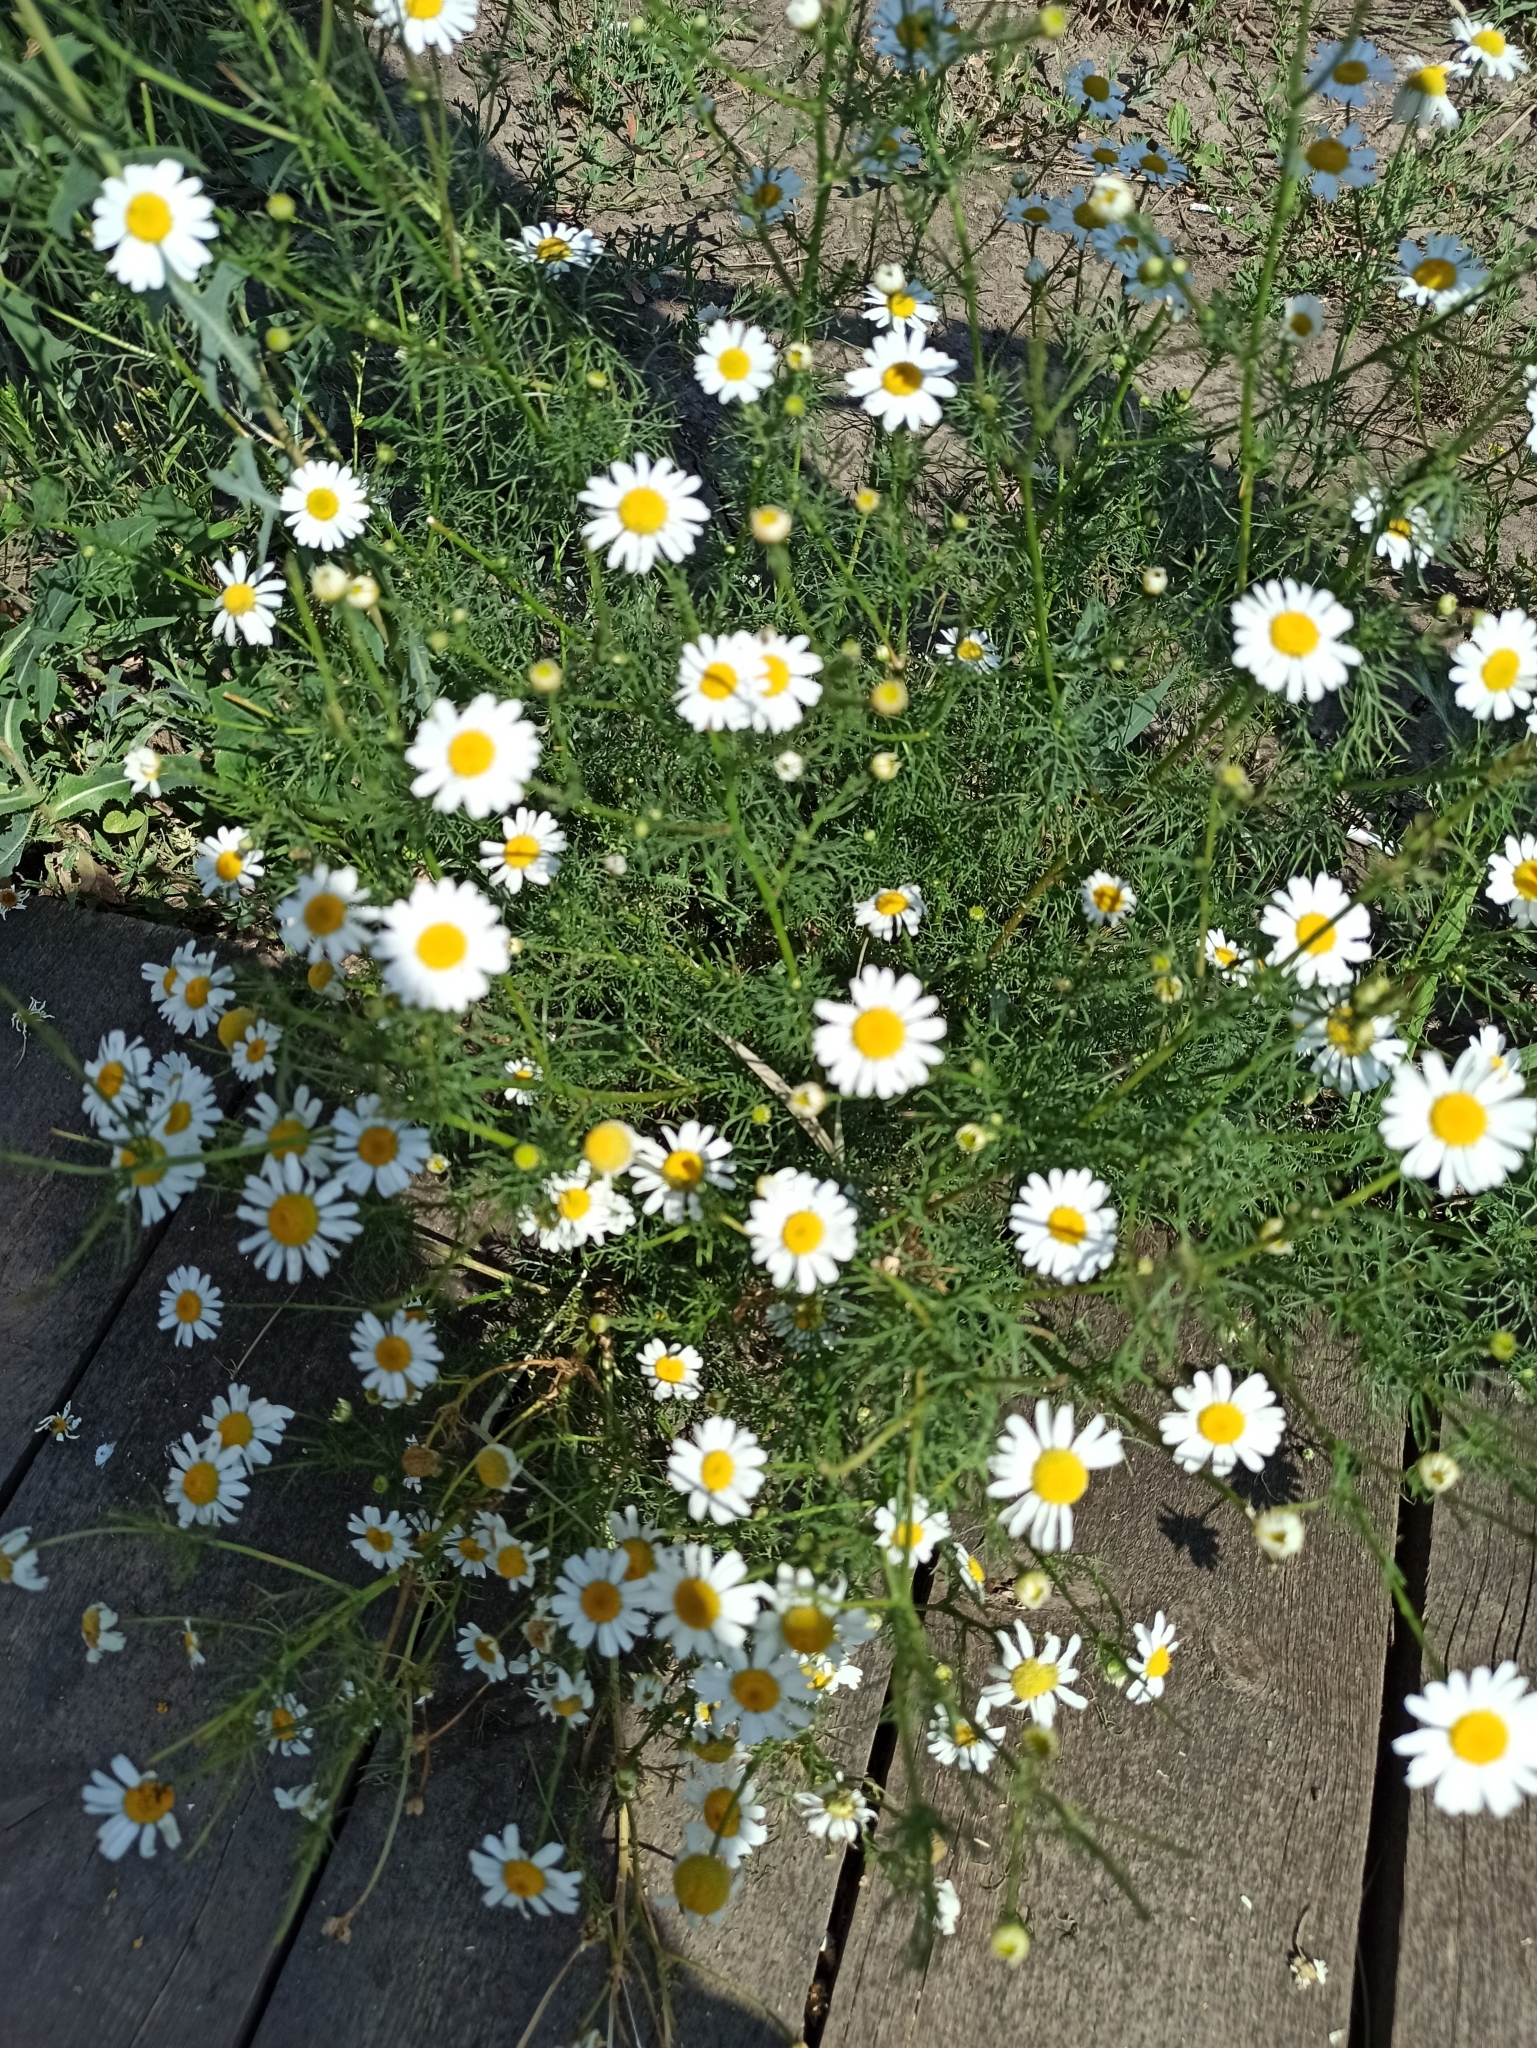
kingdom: Plantae
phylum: Tracheophyta
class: Magnoliopsida
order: Asterales
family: Asteraceae
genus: Tripleurospermum
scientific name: Tripleurospermum inodorum
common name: Scentless mayweed
